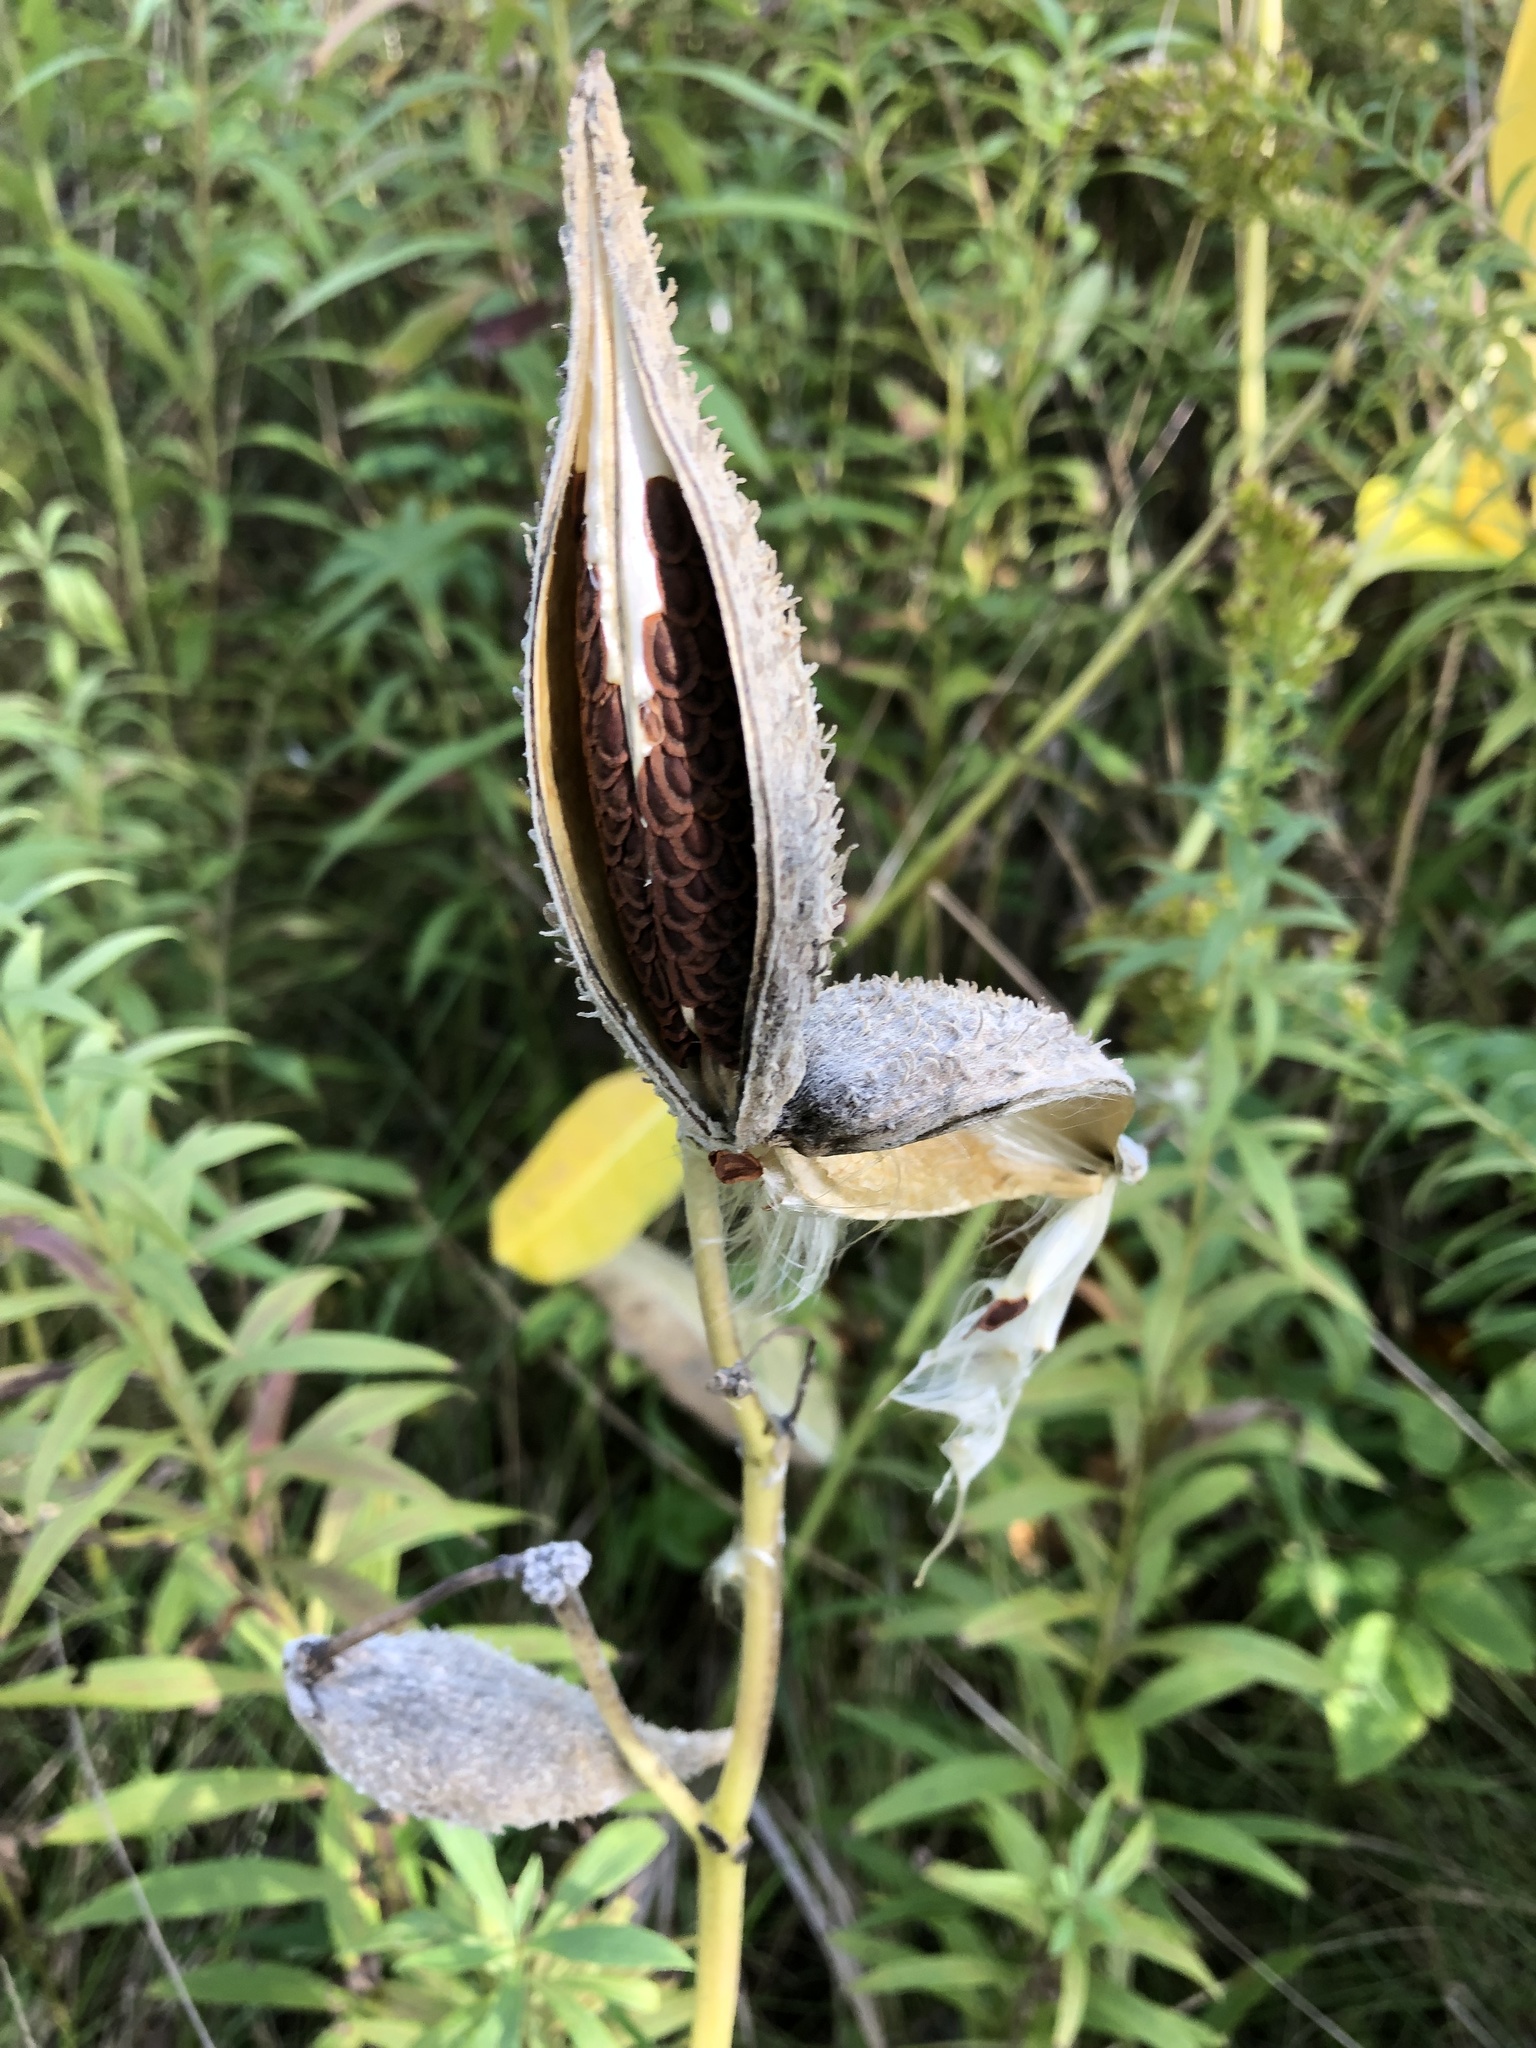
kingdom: Plantae
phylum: Tracheophyta
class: Magnoliopsida
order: Gentianales
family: Apocynaceae
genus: Asclepias
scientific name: Asclepias syriaca
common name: Common milkweed
